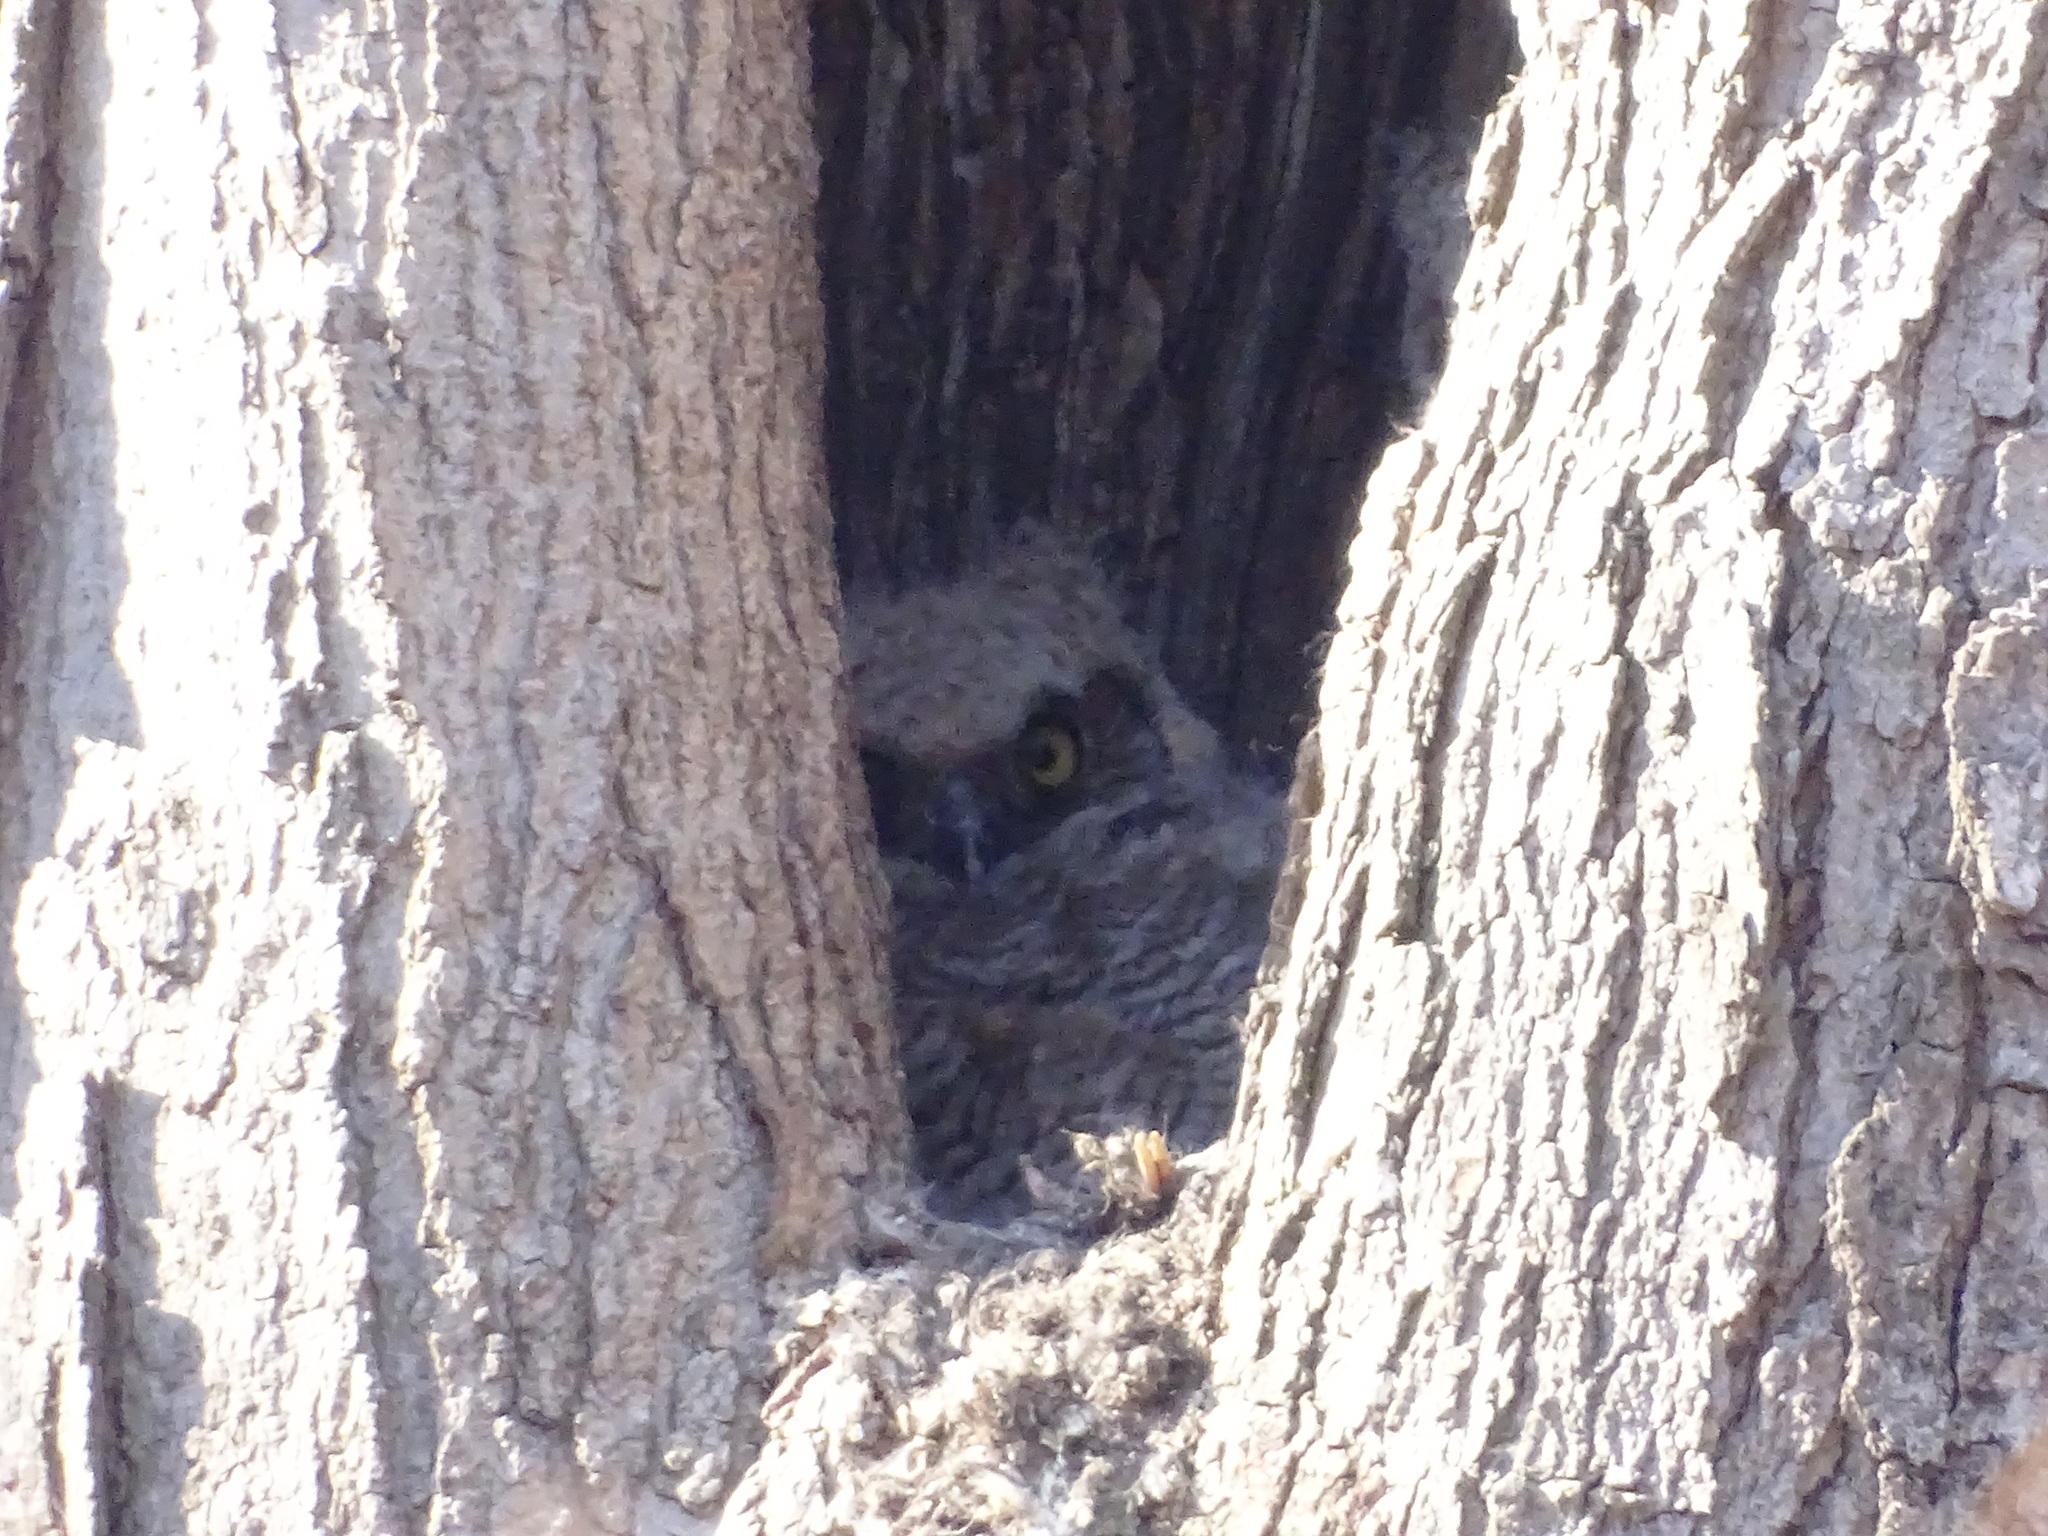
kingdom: Animalia
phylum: Chordata
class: Aves
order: Strigiformes
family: Strigidae
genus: Bubo
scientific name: Bubo virginianus
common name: Great horned owl
